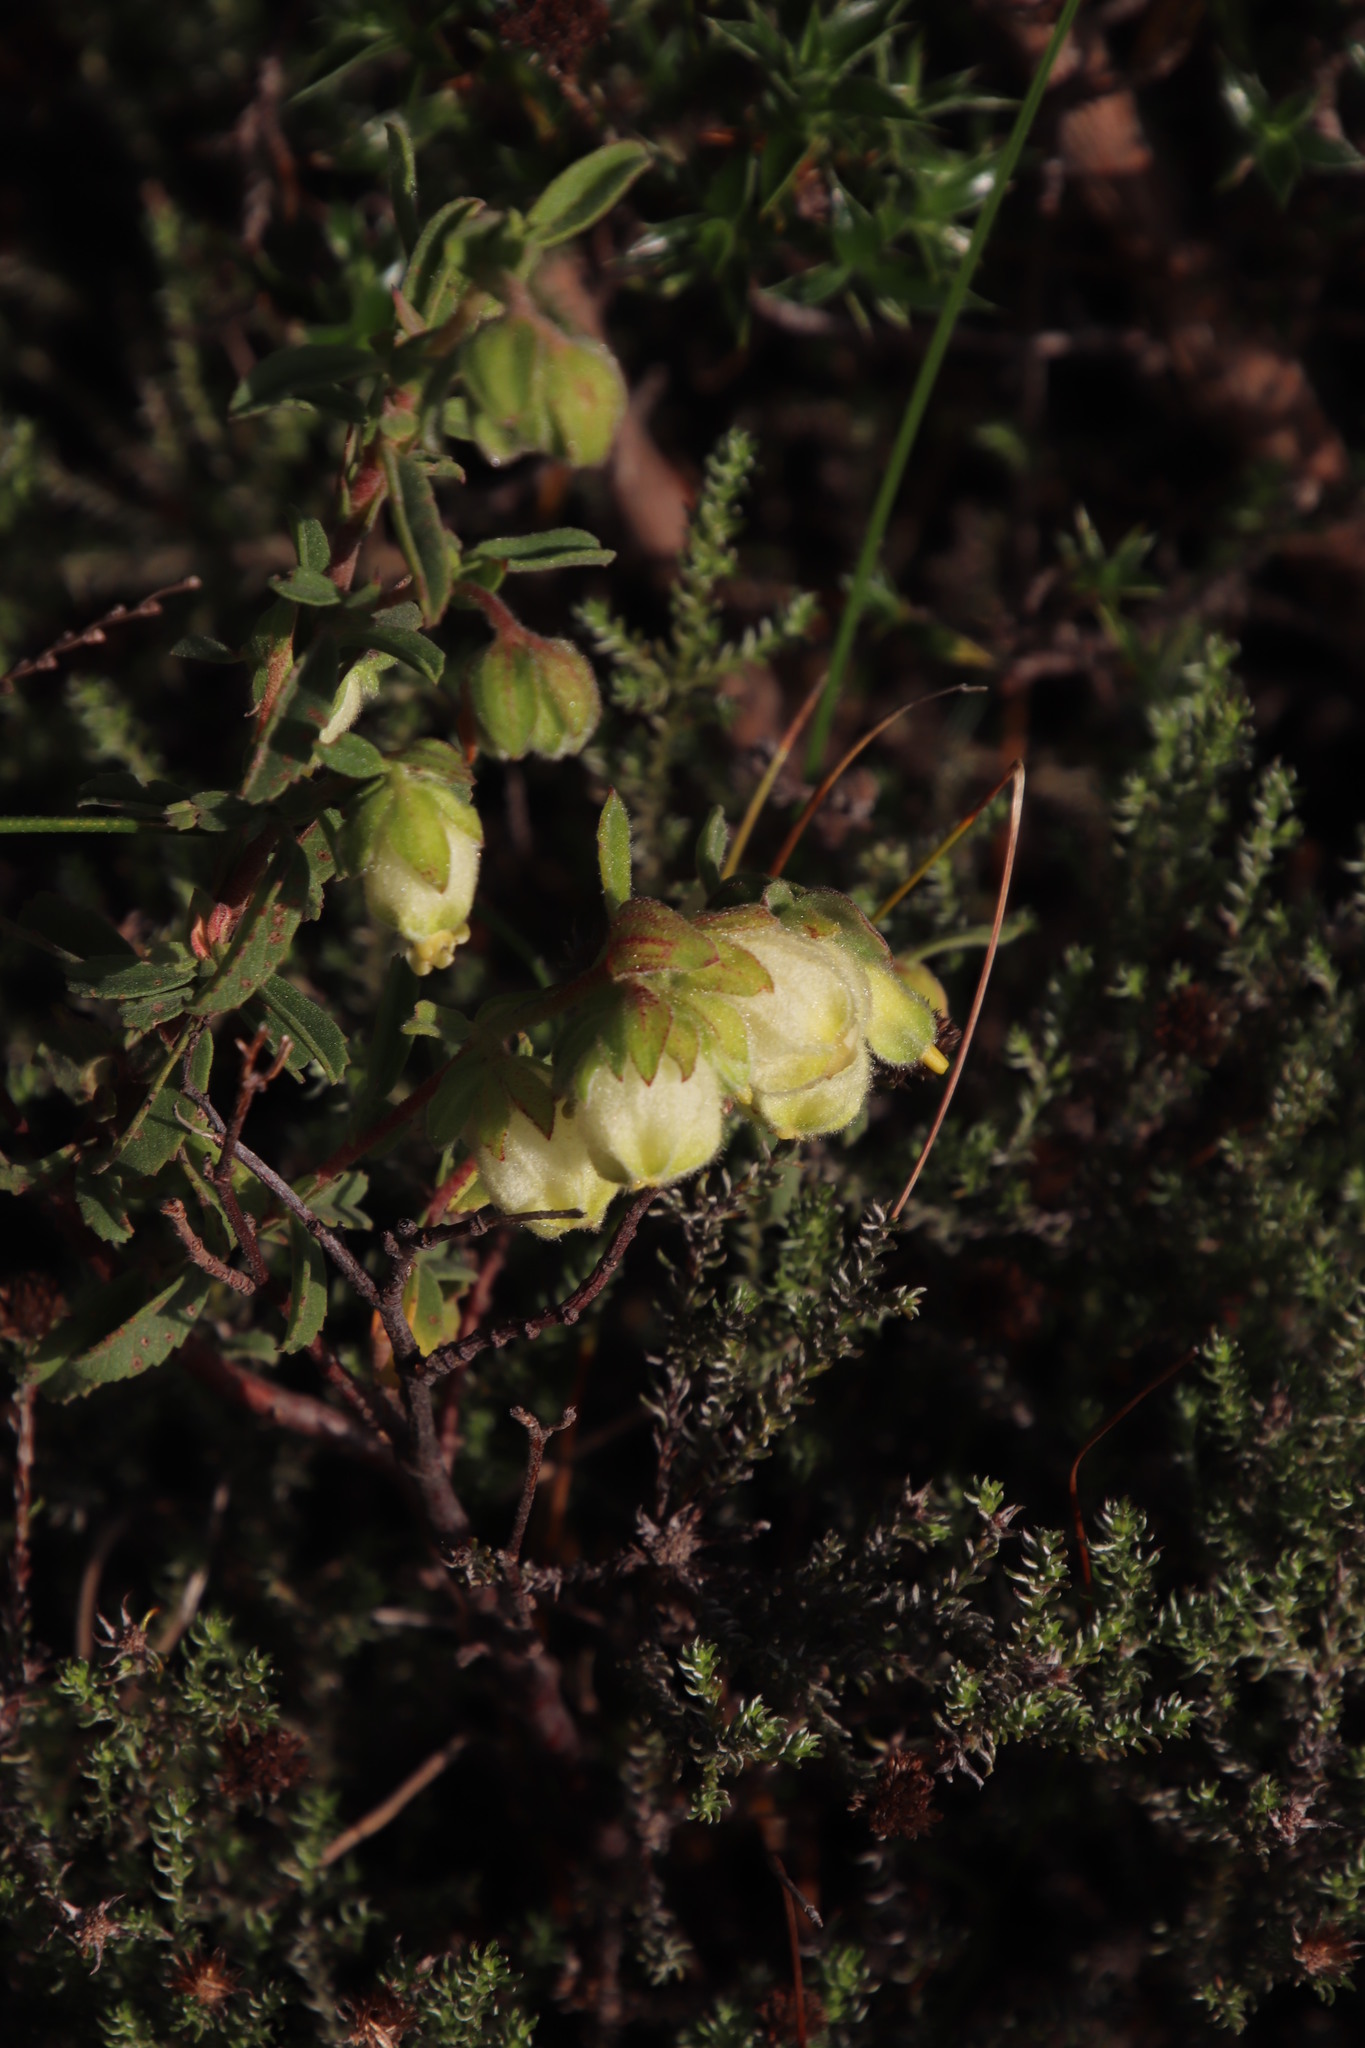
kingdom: Plantae
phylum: Tracheophyta
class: Magnoliopsida
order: Malvales
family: Malvaceae
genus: Hermannia
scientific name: Hermannia hyssopifolia
